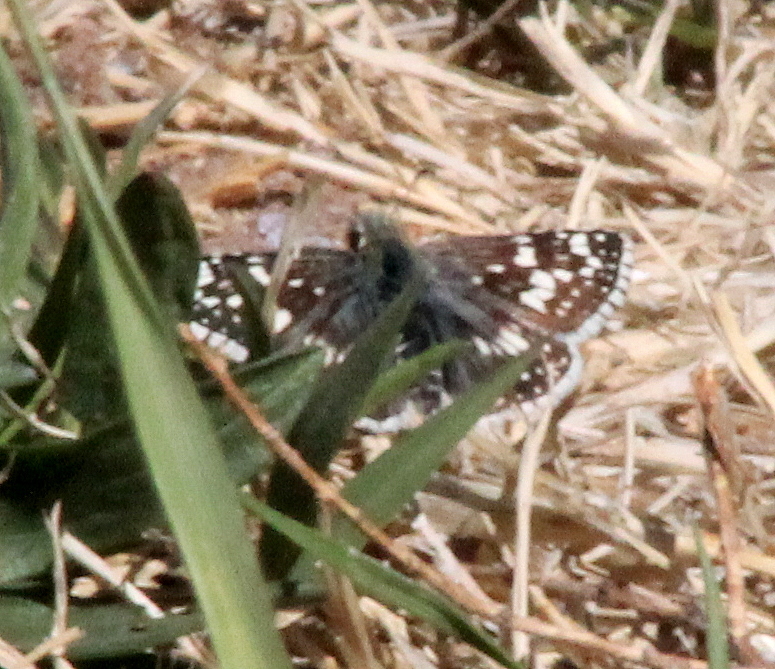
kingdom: Animalia
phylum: Arthropoda
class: Insecta
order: Lepidoptera
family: Hesperiidae
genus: Burnsius
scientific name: Burnsius communis
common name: Common checkered-skipper
